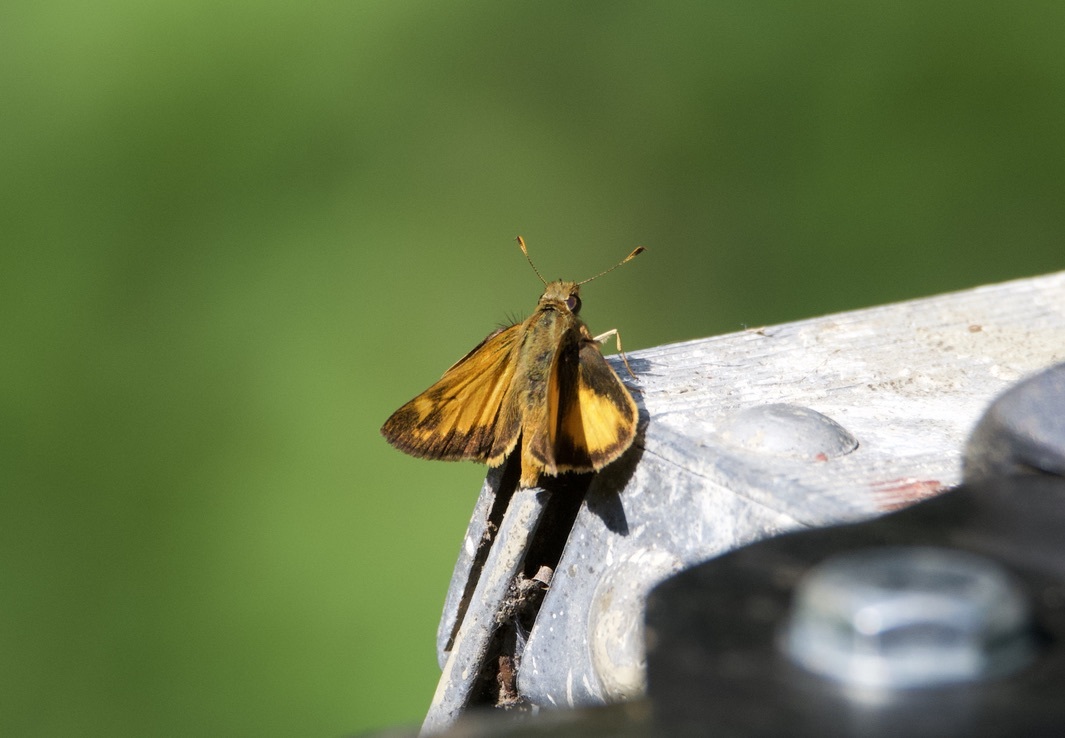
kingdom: Animalia
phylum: Arthropoda
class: Insecta
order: Lepidoptera
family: Hesperiidae
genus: Lon
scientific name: Lon zabulon
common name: Zabulon skipper
